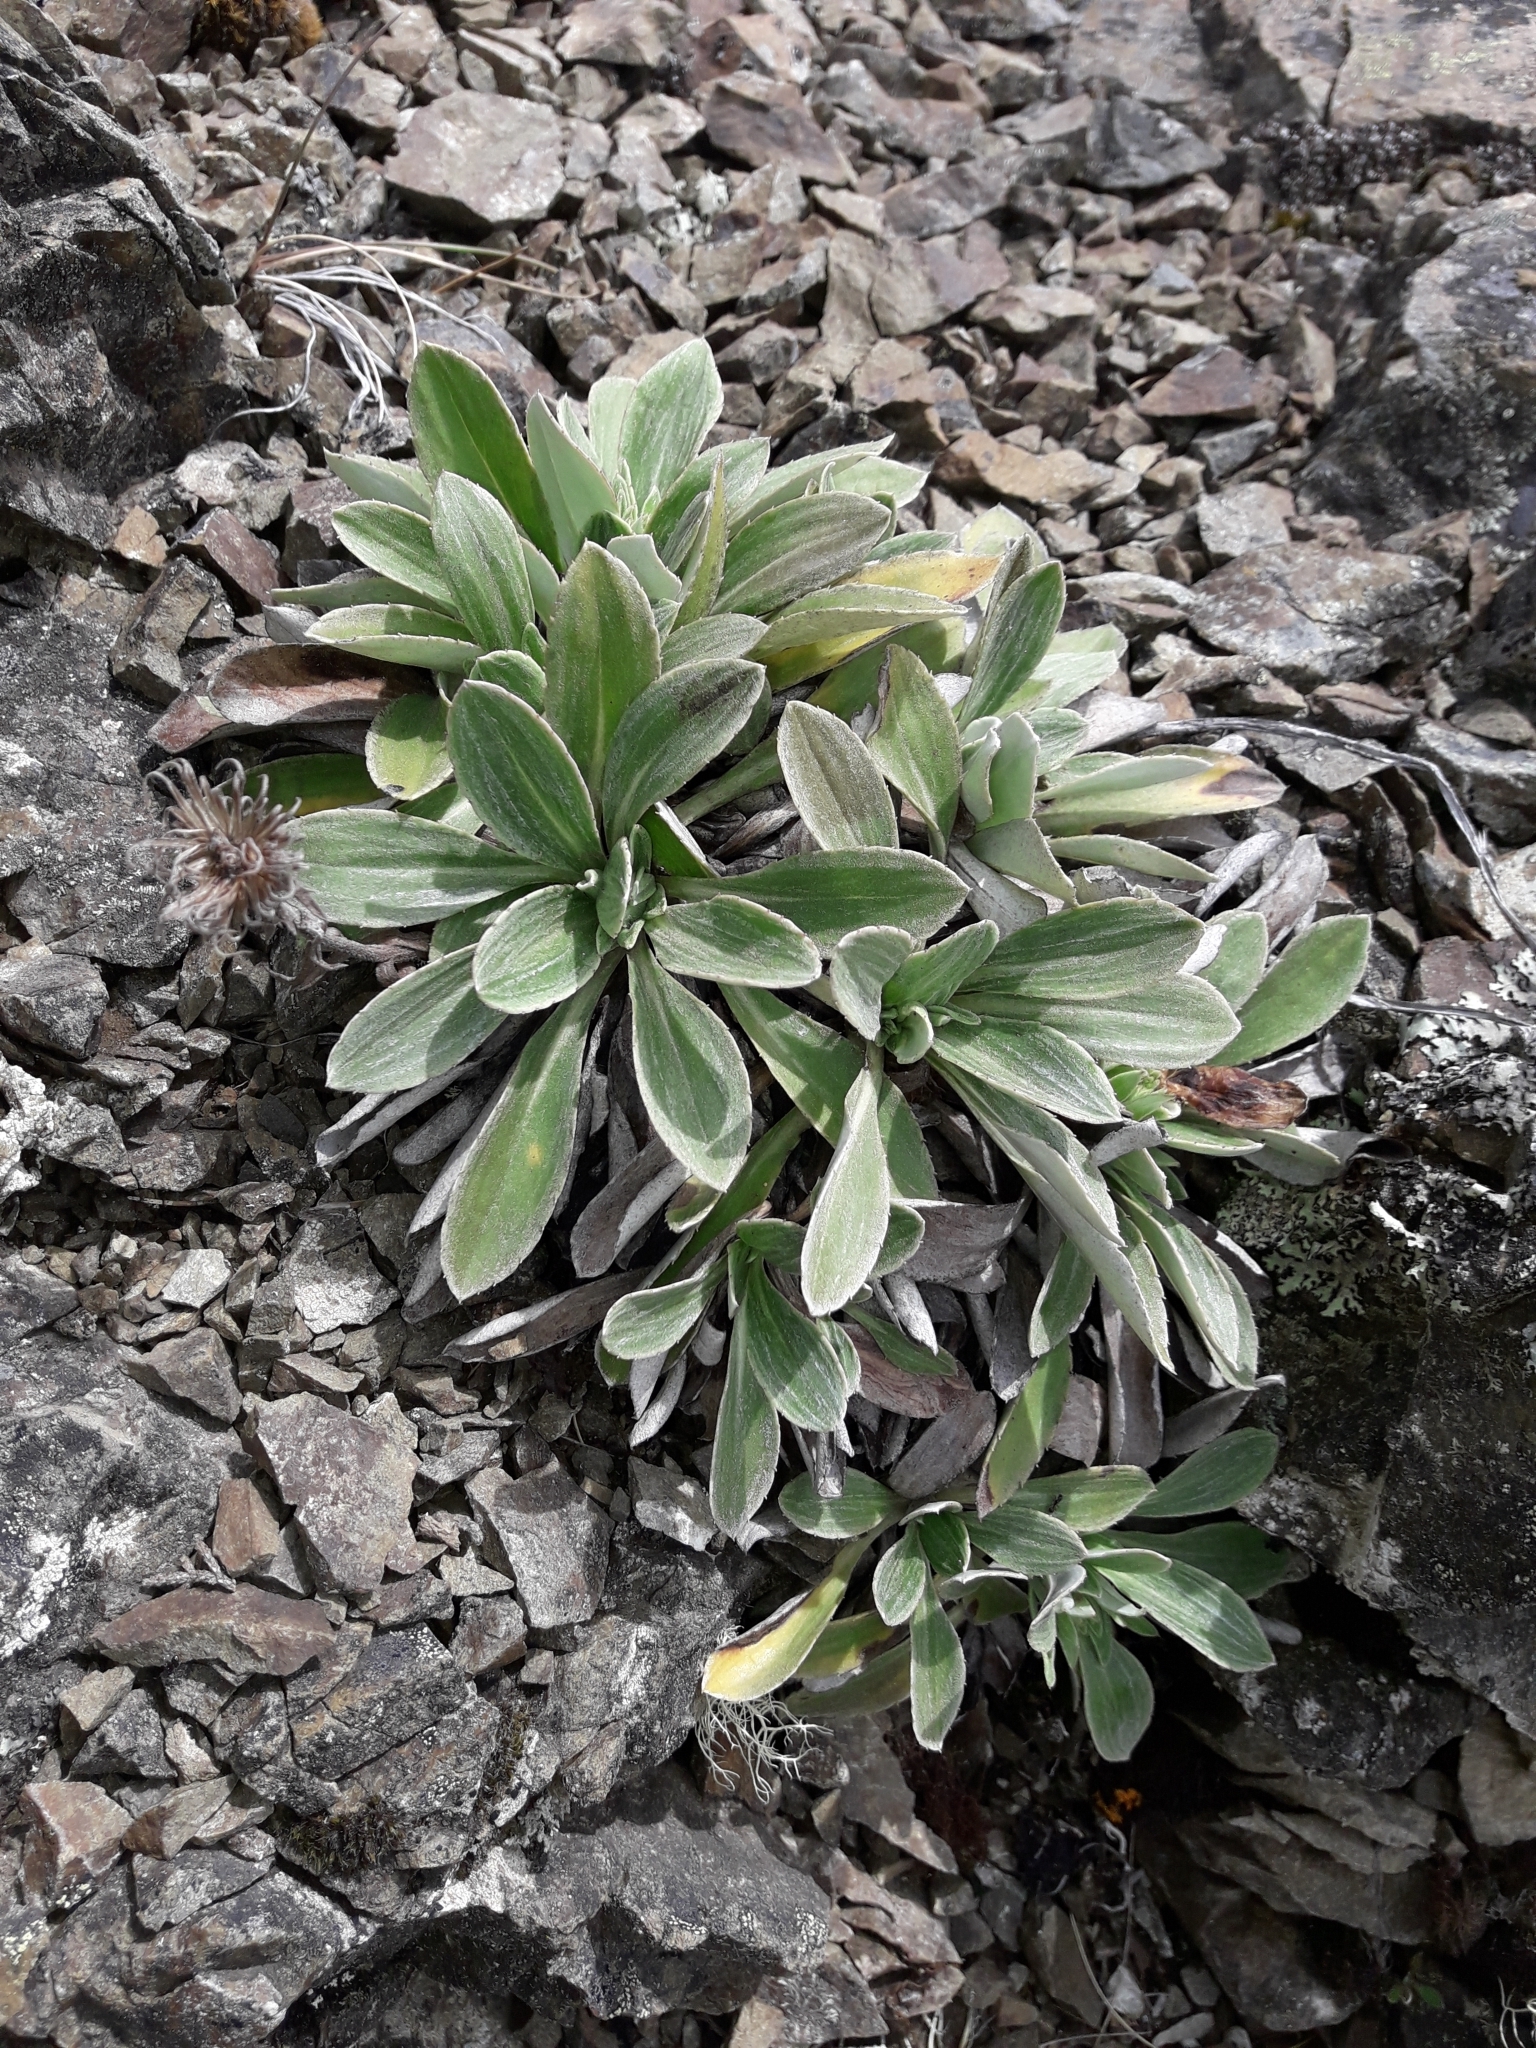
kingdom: Plantae
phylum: Tracheophyta
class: Magnoliopsida
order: Asterales
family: Asteraceae
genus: Celmisia
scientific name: Celmisia cockayneana
